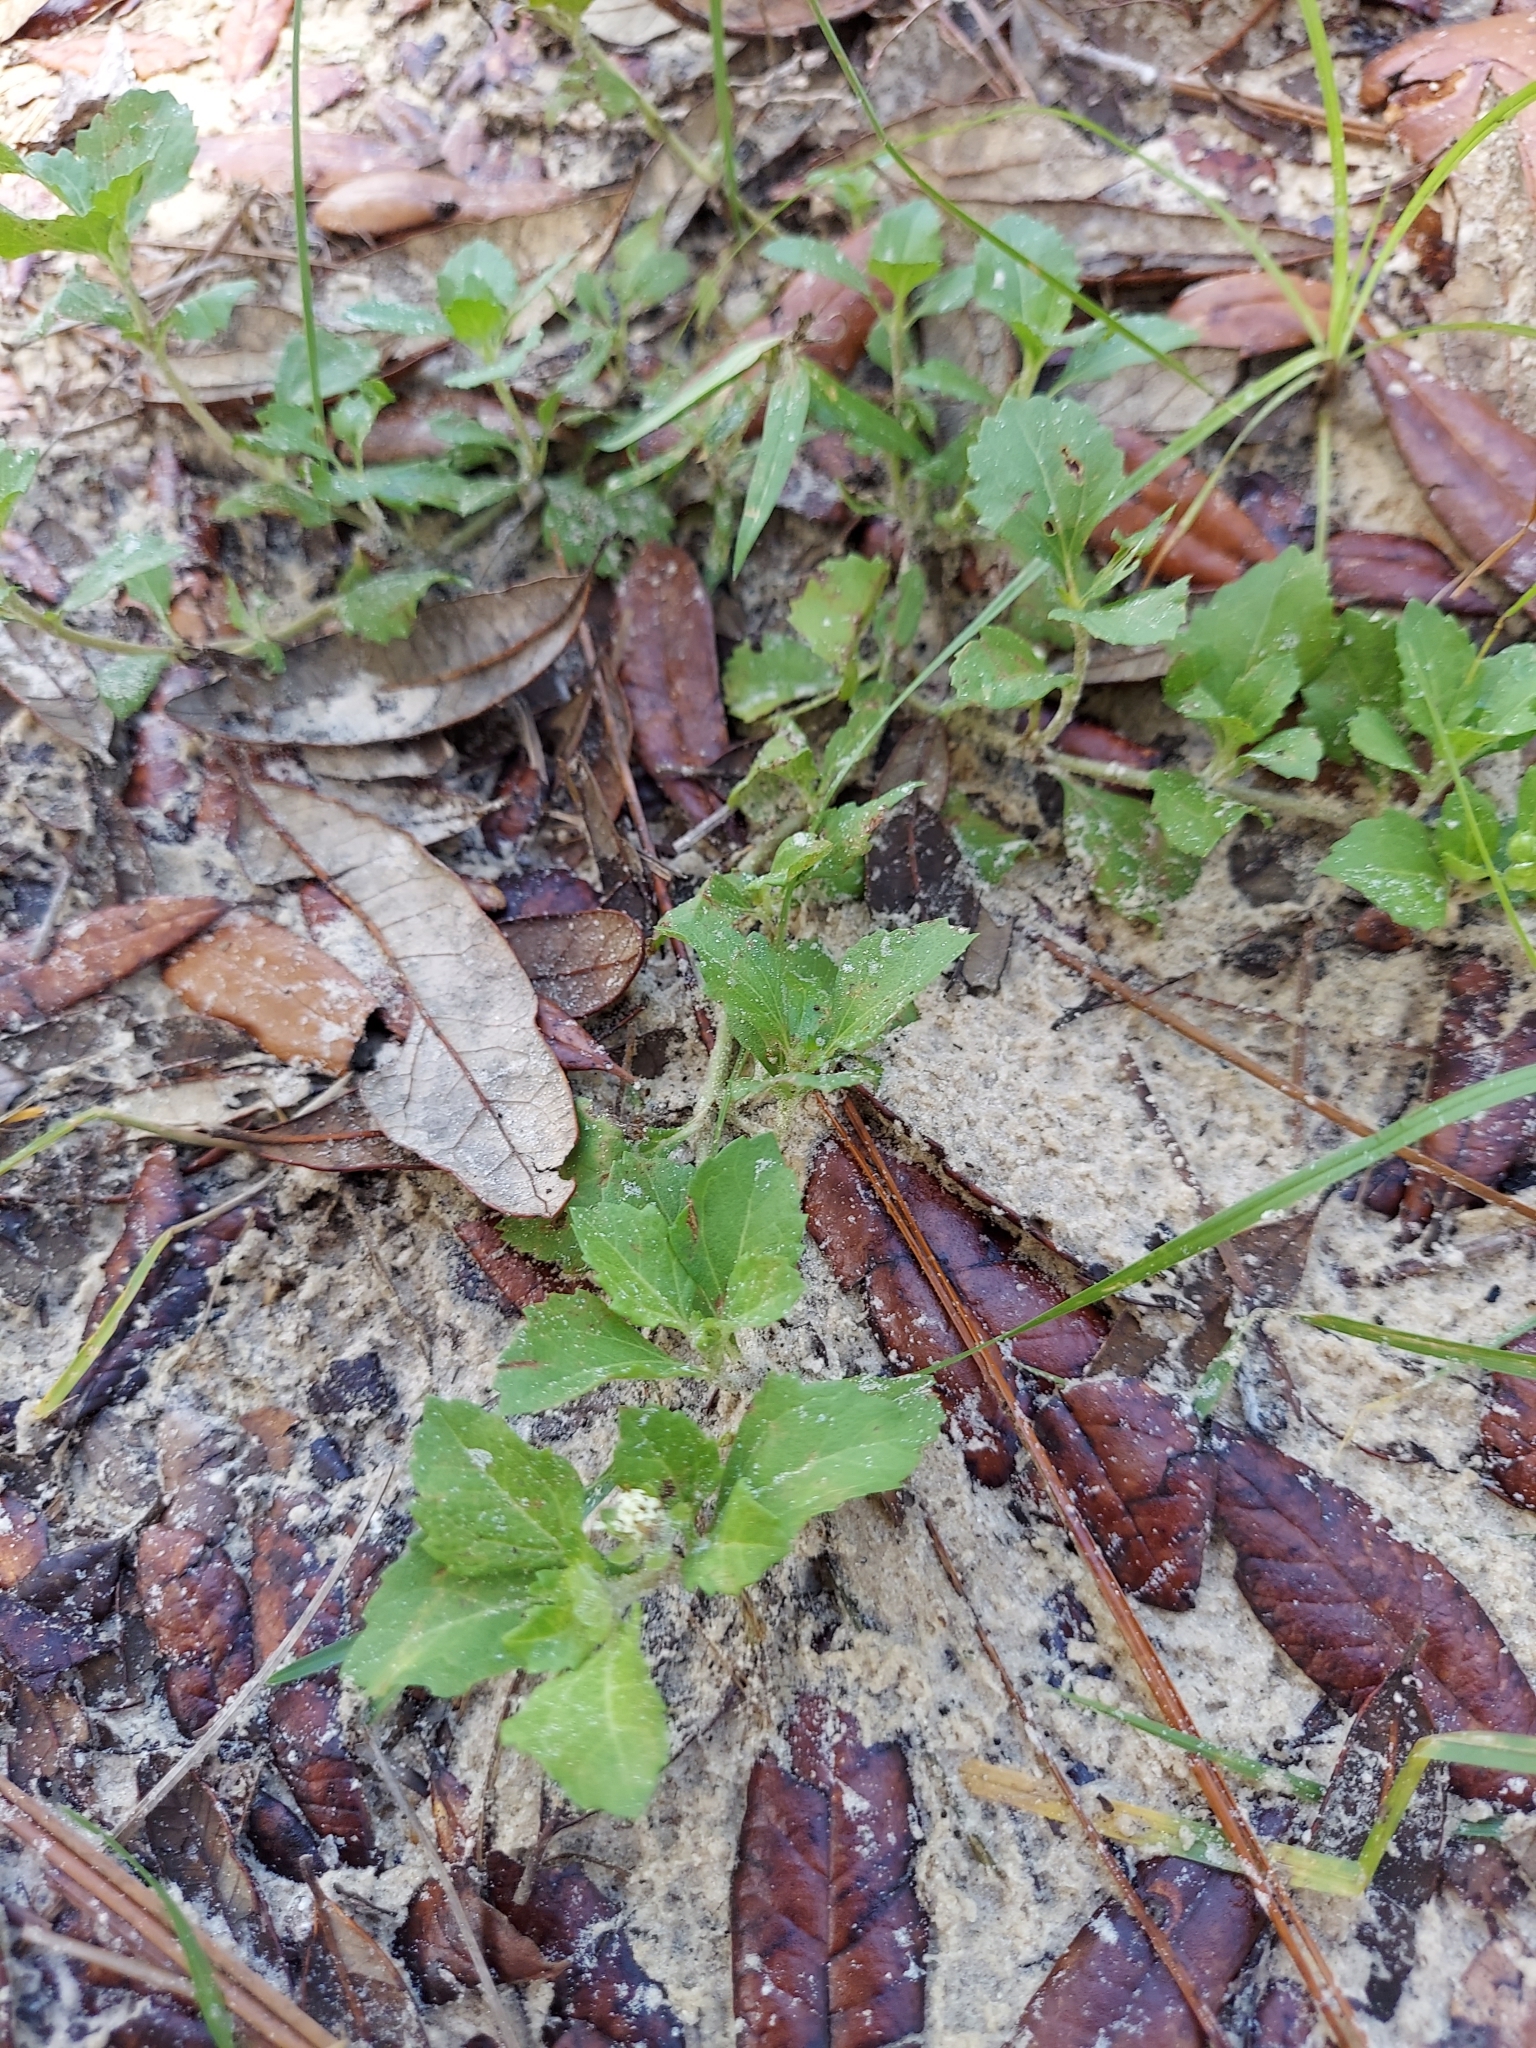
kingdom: Plantae
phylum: Tracheophyta
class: Magnoliopsida
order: Asterales
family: Asteraceae
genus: Acanthospermum
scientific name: Acanthospermum australe
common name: Paraguayan starbur
